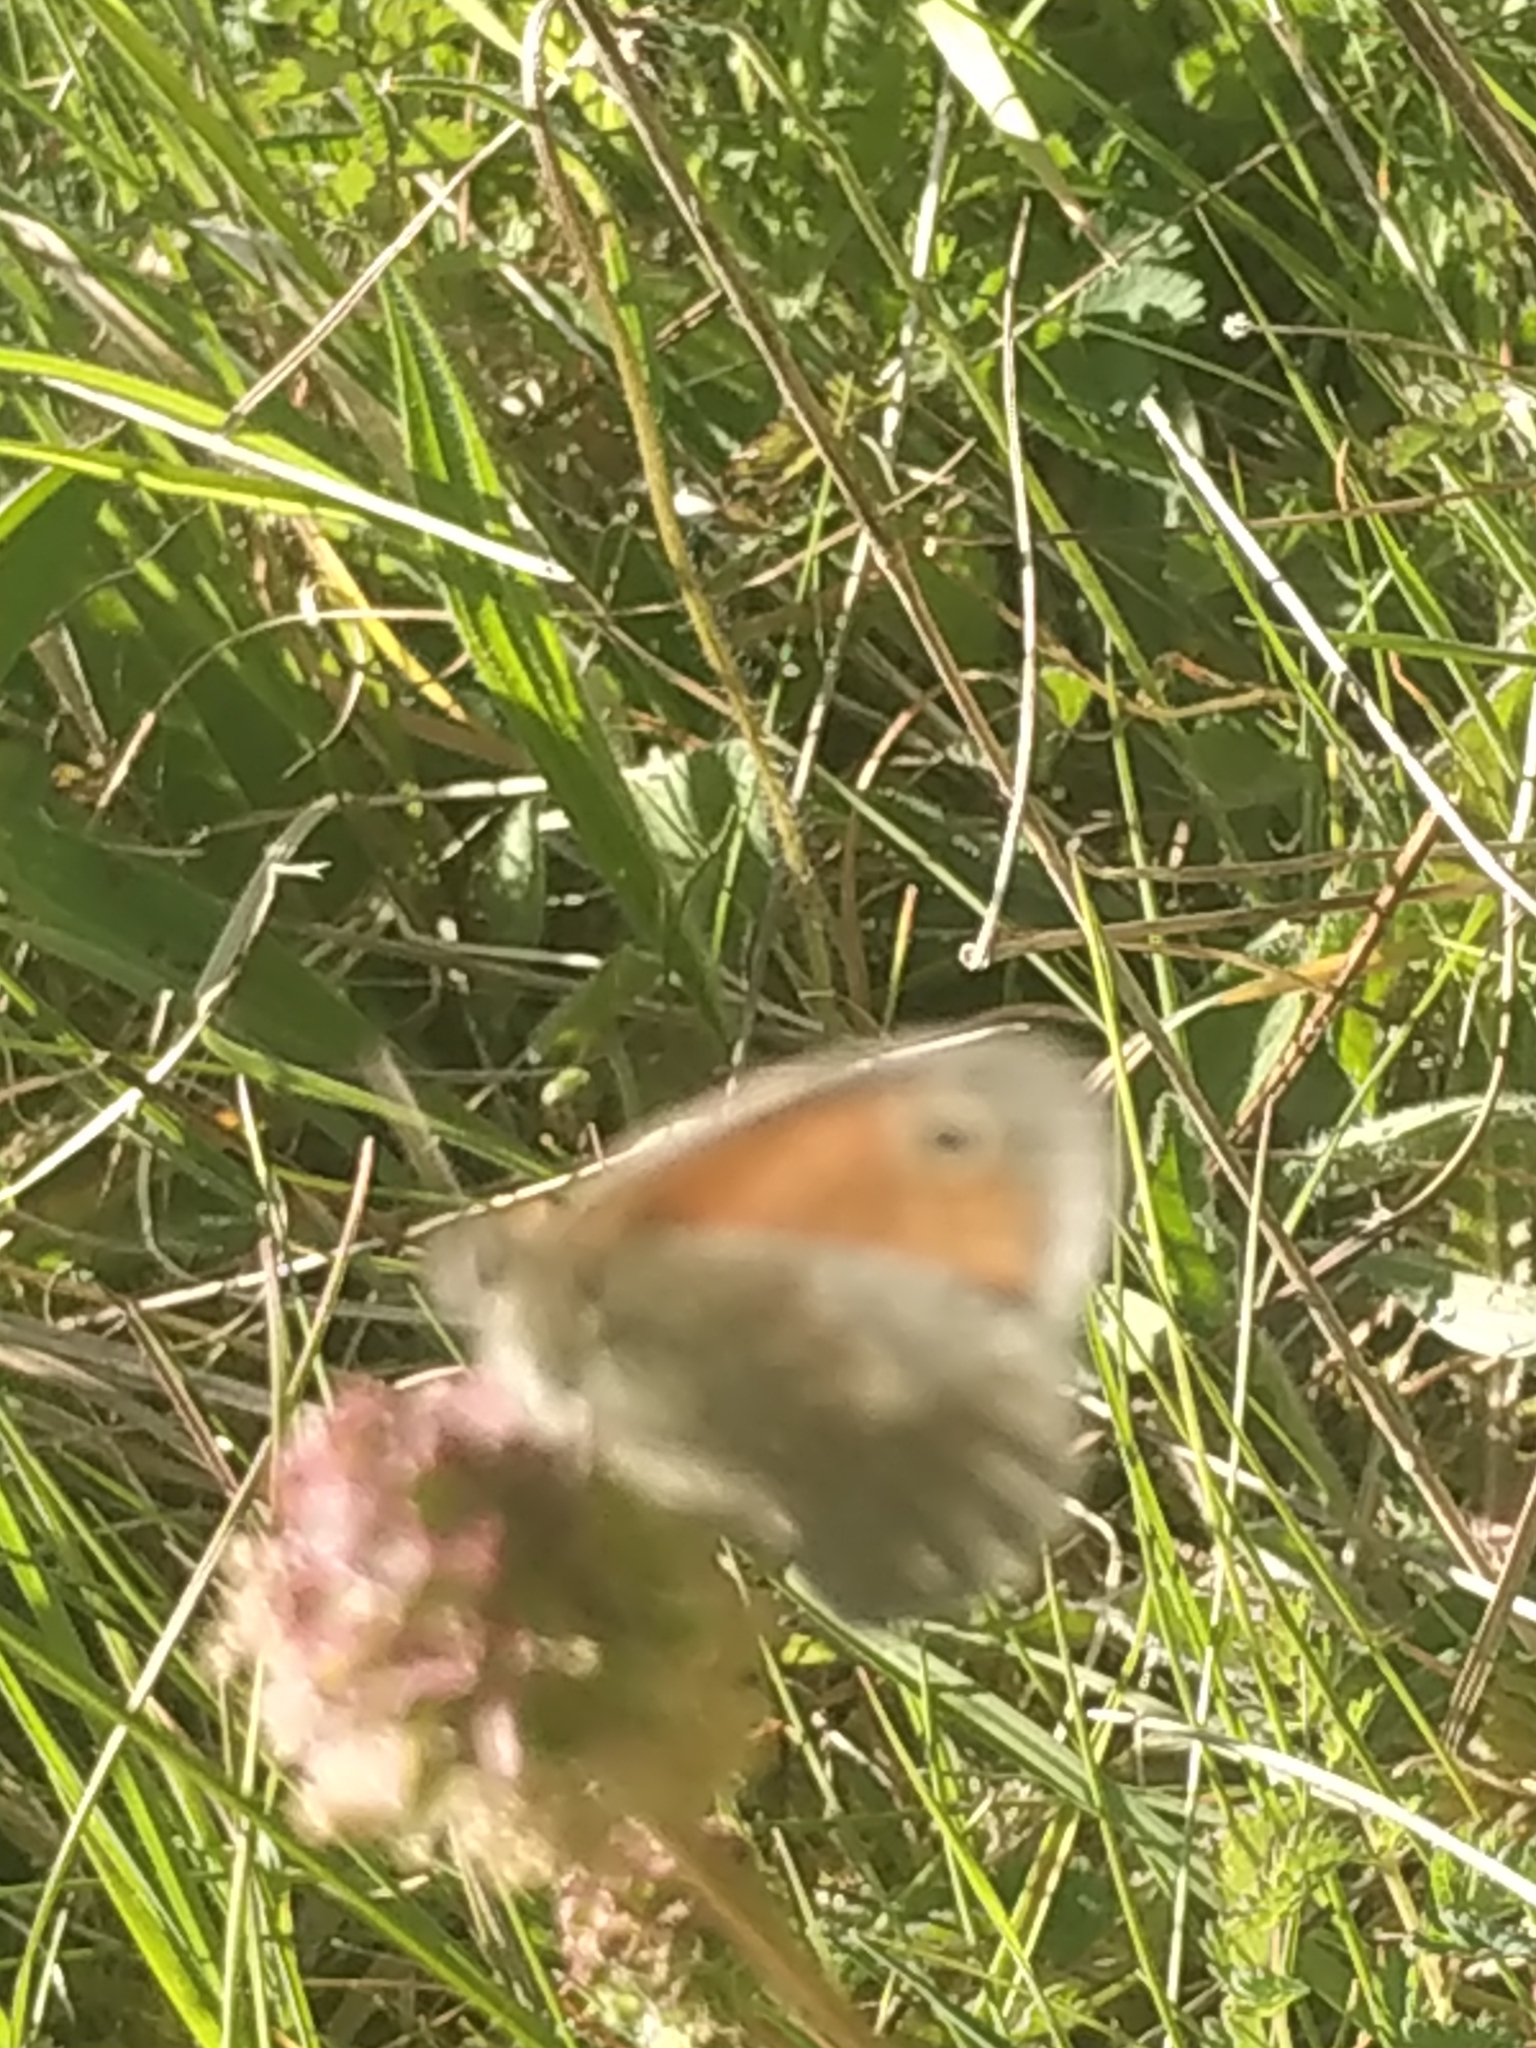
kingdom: Animalia
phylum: Arthropoda
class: Insecta
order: Lepidoptera
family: Nymphalidae
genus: Coenonympha
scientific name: Coenonympha pamphilus
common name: Small heath
